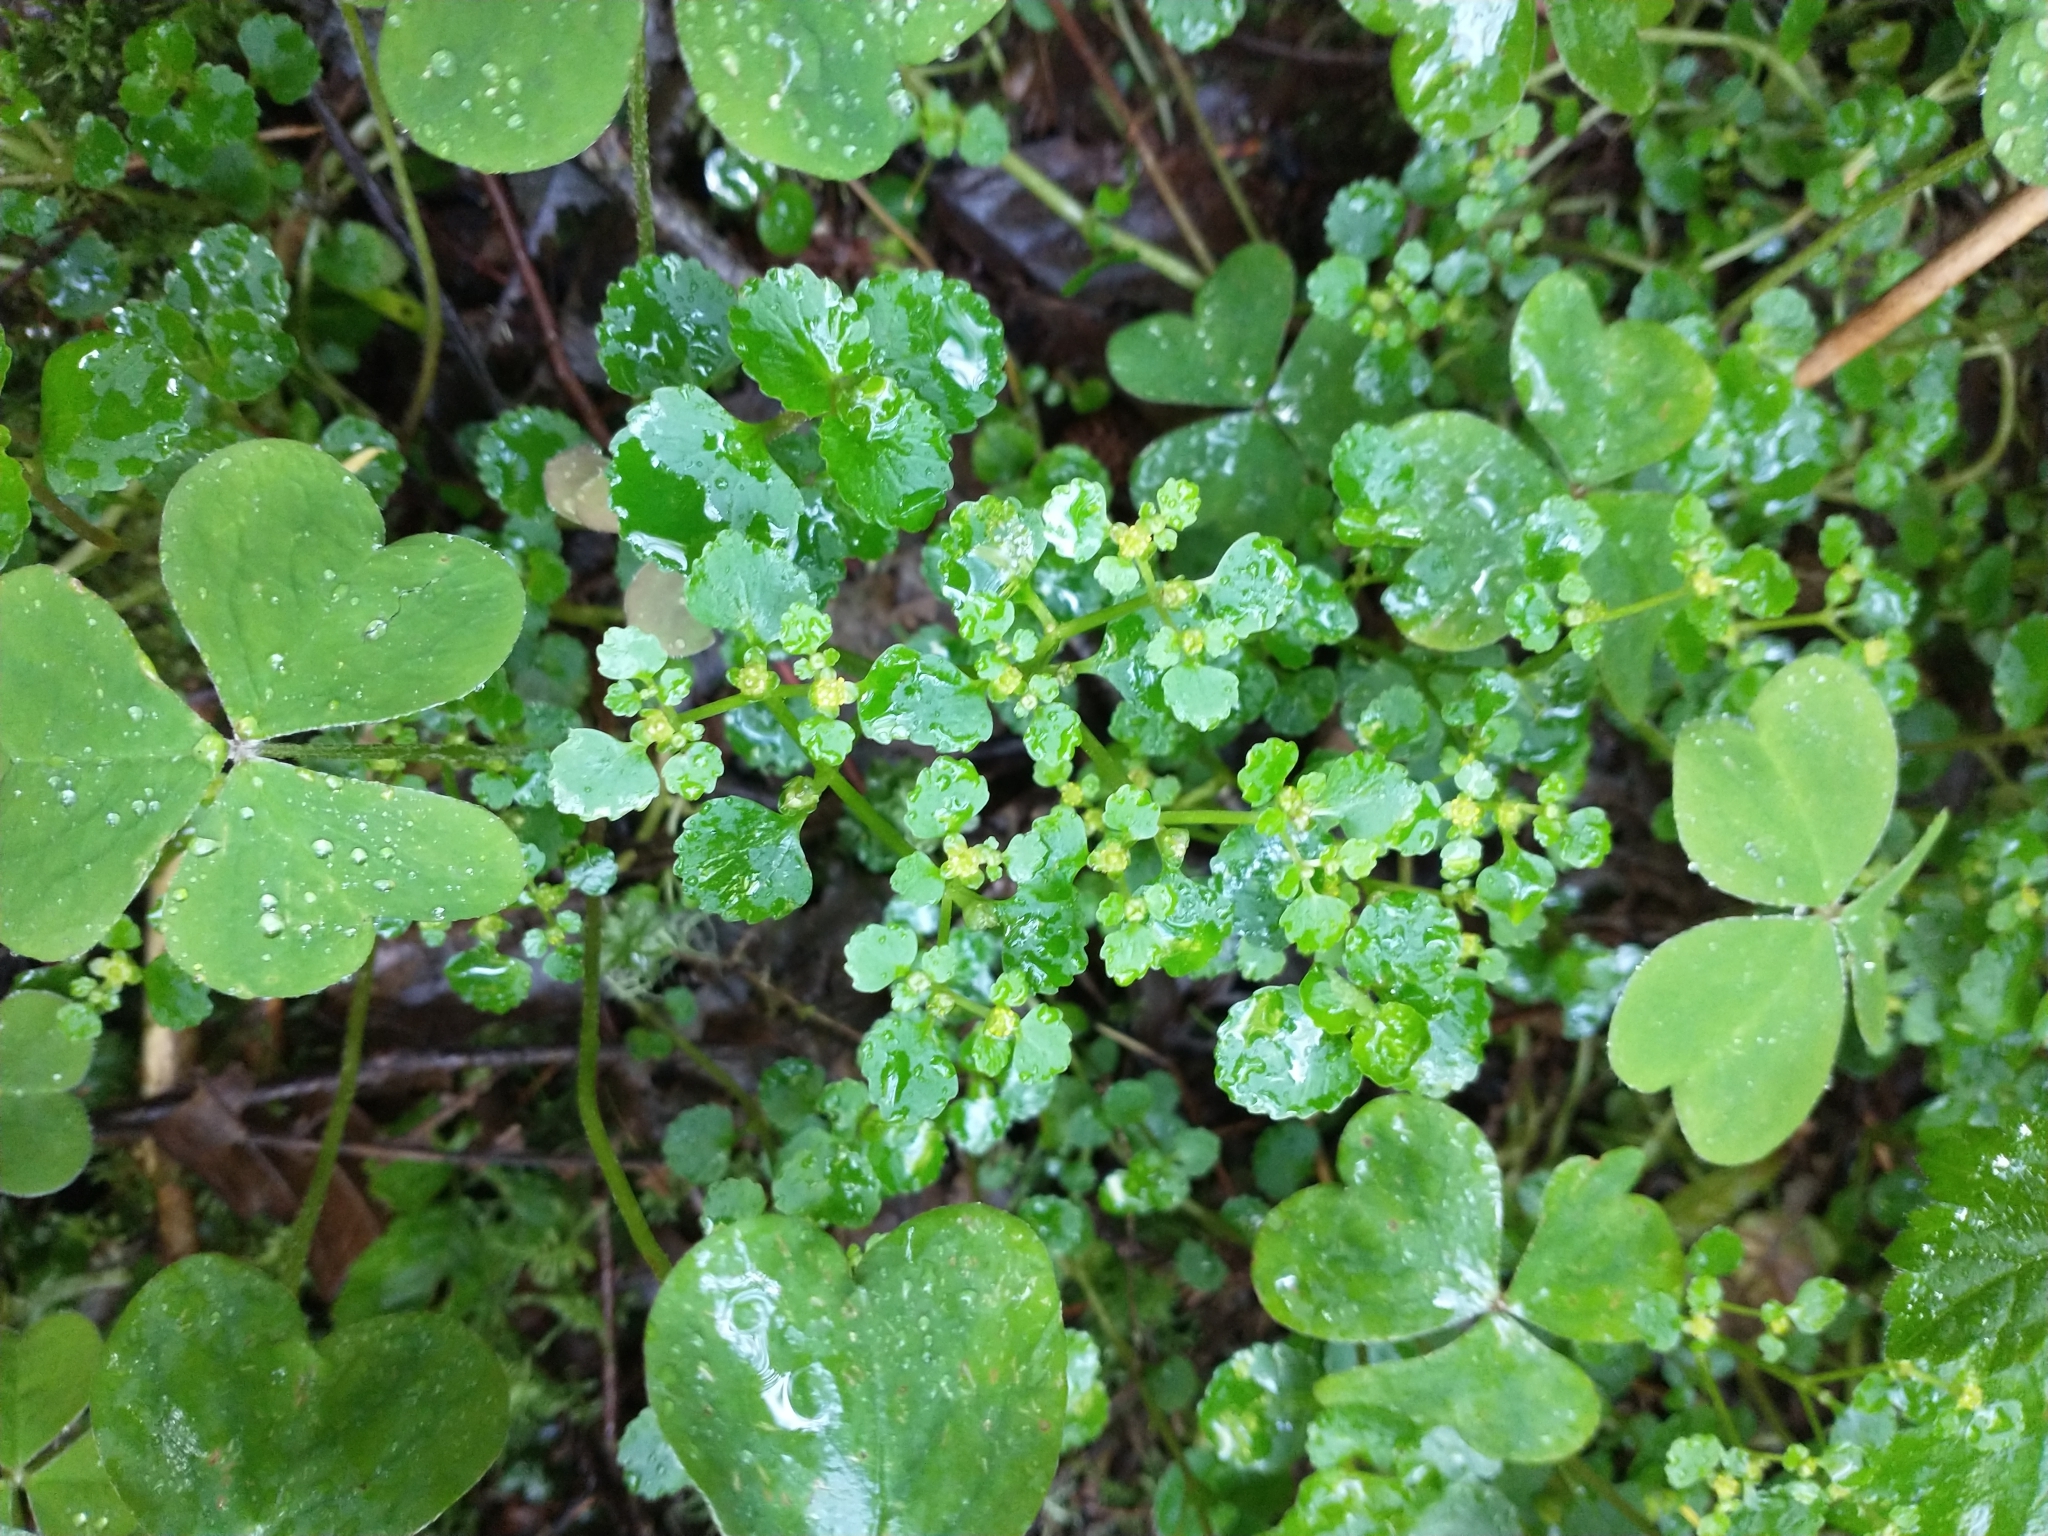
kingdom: Plantae
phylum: Tracheophyta
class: Magnoliopsida
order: Saxifragales
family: Saxifragaceae
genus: Chrysosplenium
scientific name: Chrysosplenium glechomifolium
